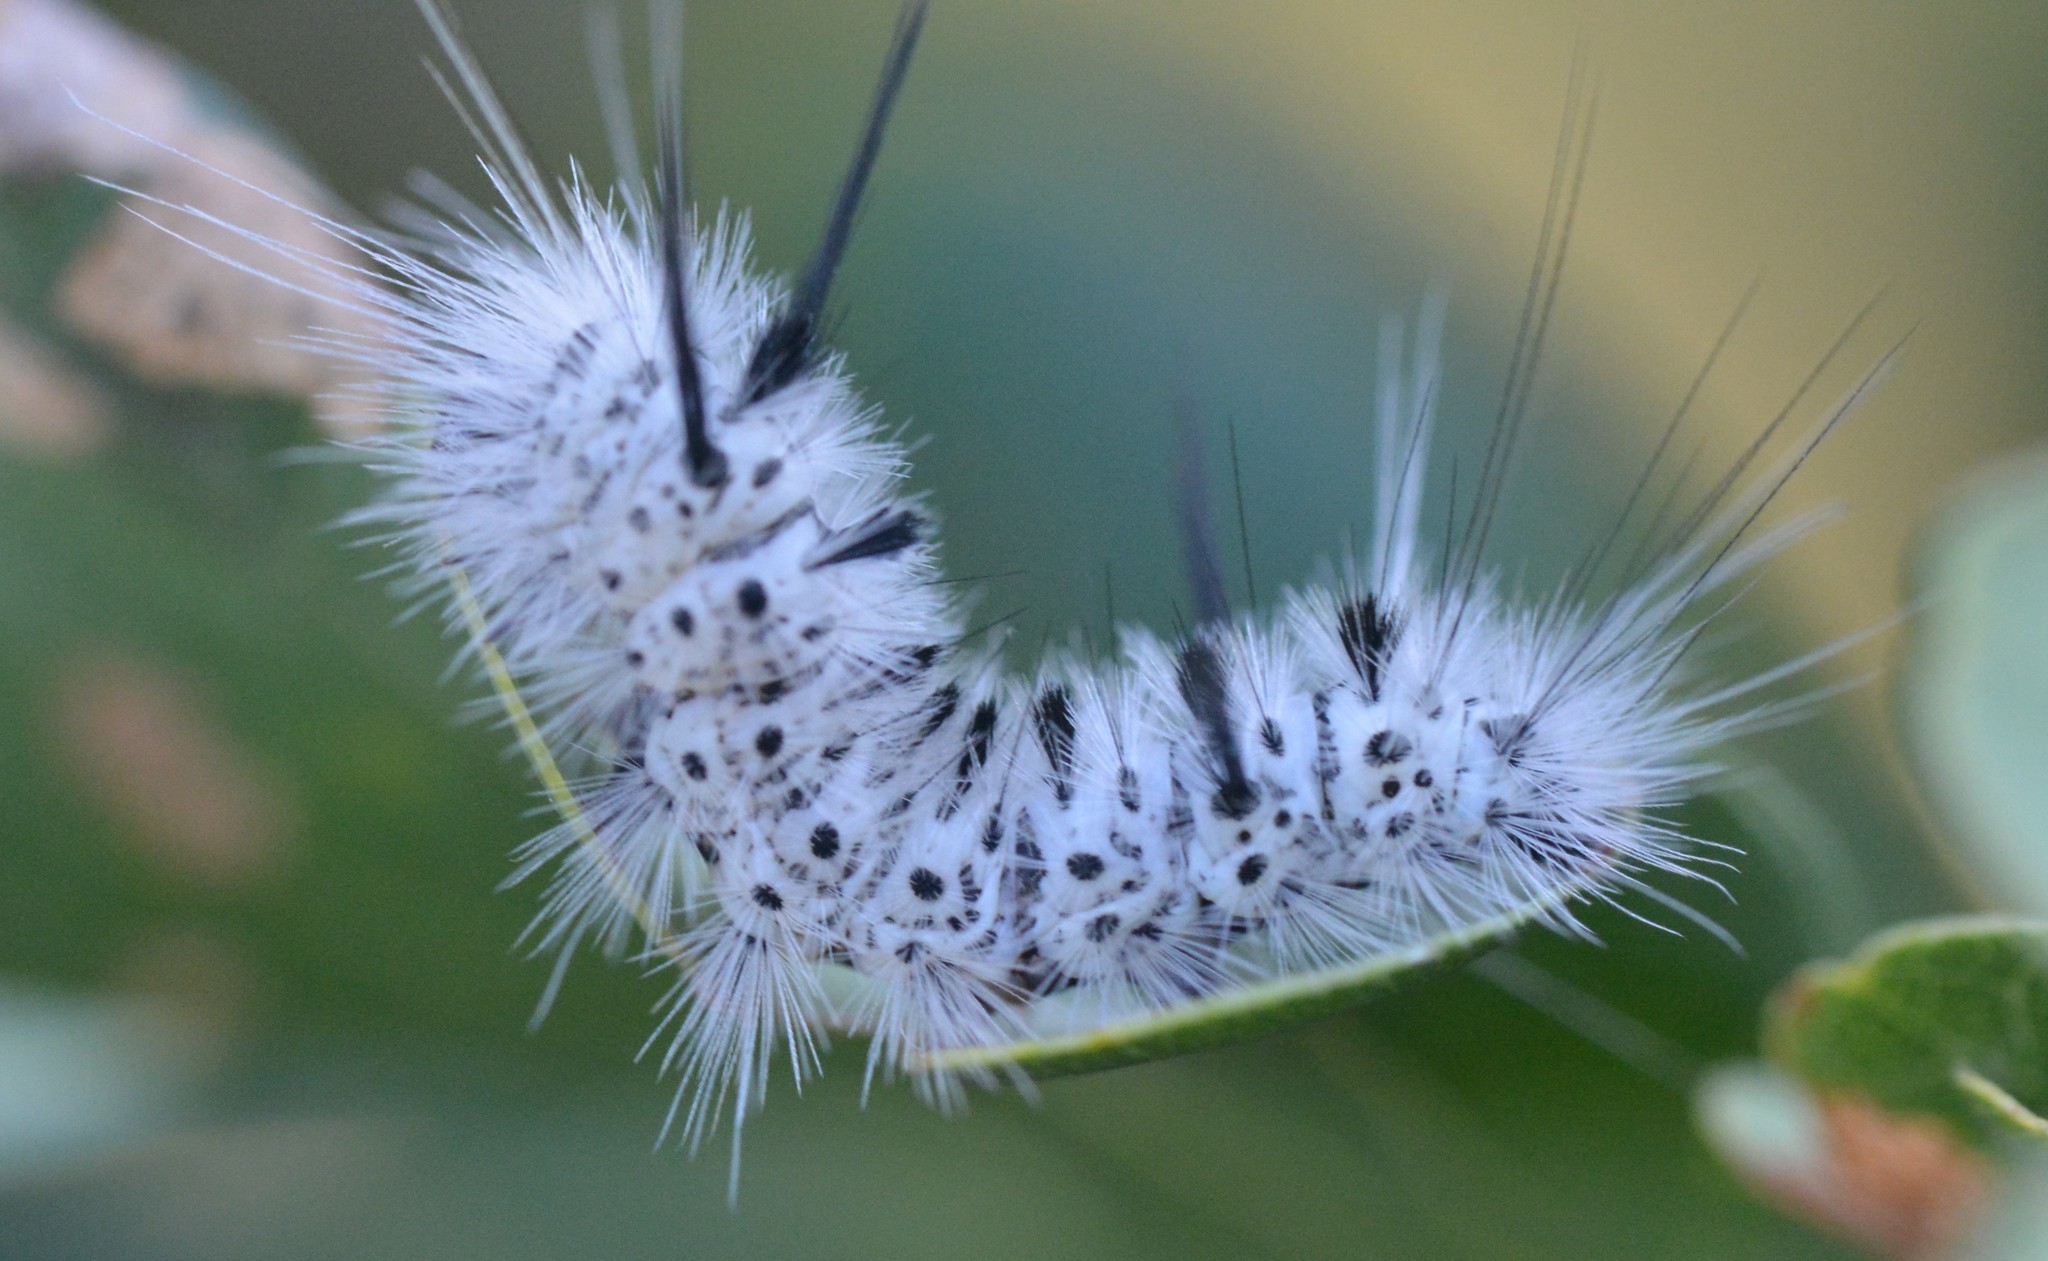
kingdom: Animalia
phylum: Arthropoda
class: Insecta
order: Lepidoptera
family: Erebidae
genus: Lophocampa
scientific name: Lophocampa caryae
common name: Hickory tussock moth
